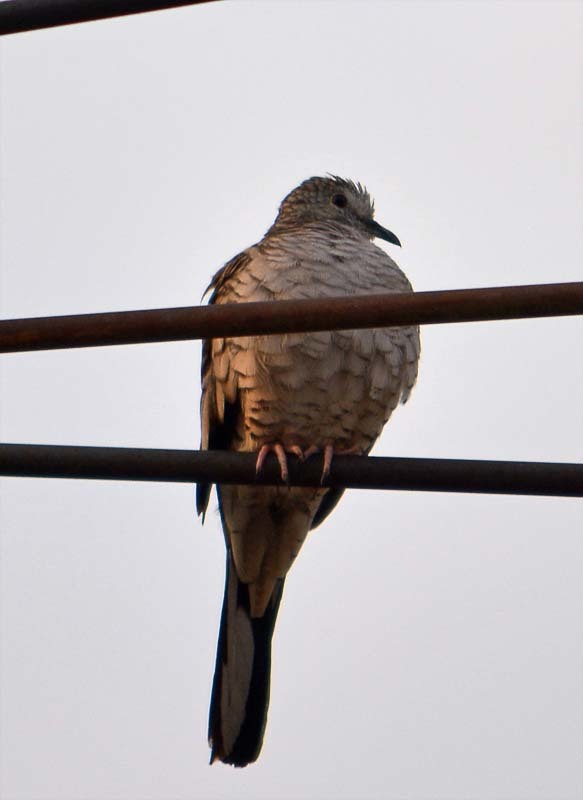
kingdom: Animalia
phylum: Chordata
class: Aves
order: Columbiformes
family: Columbidae
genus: Columbina
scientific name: Columbina inca
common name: Inca dove
